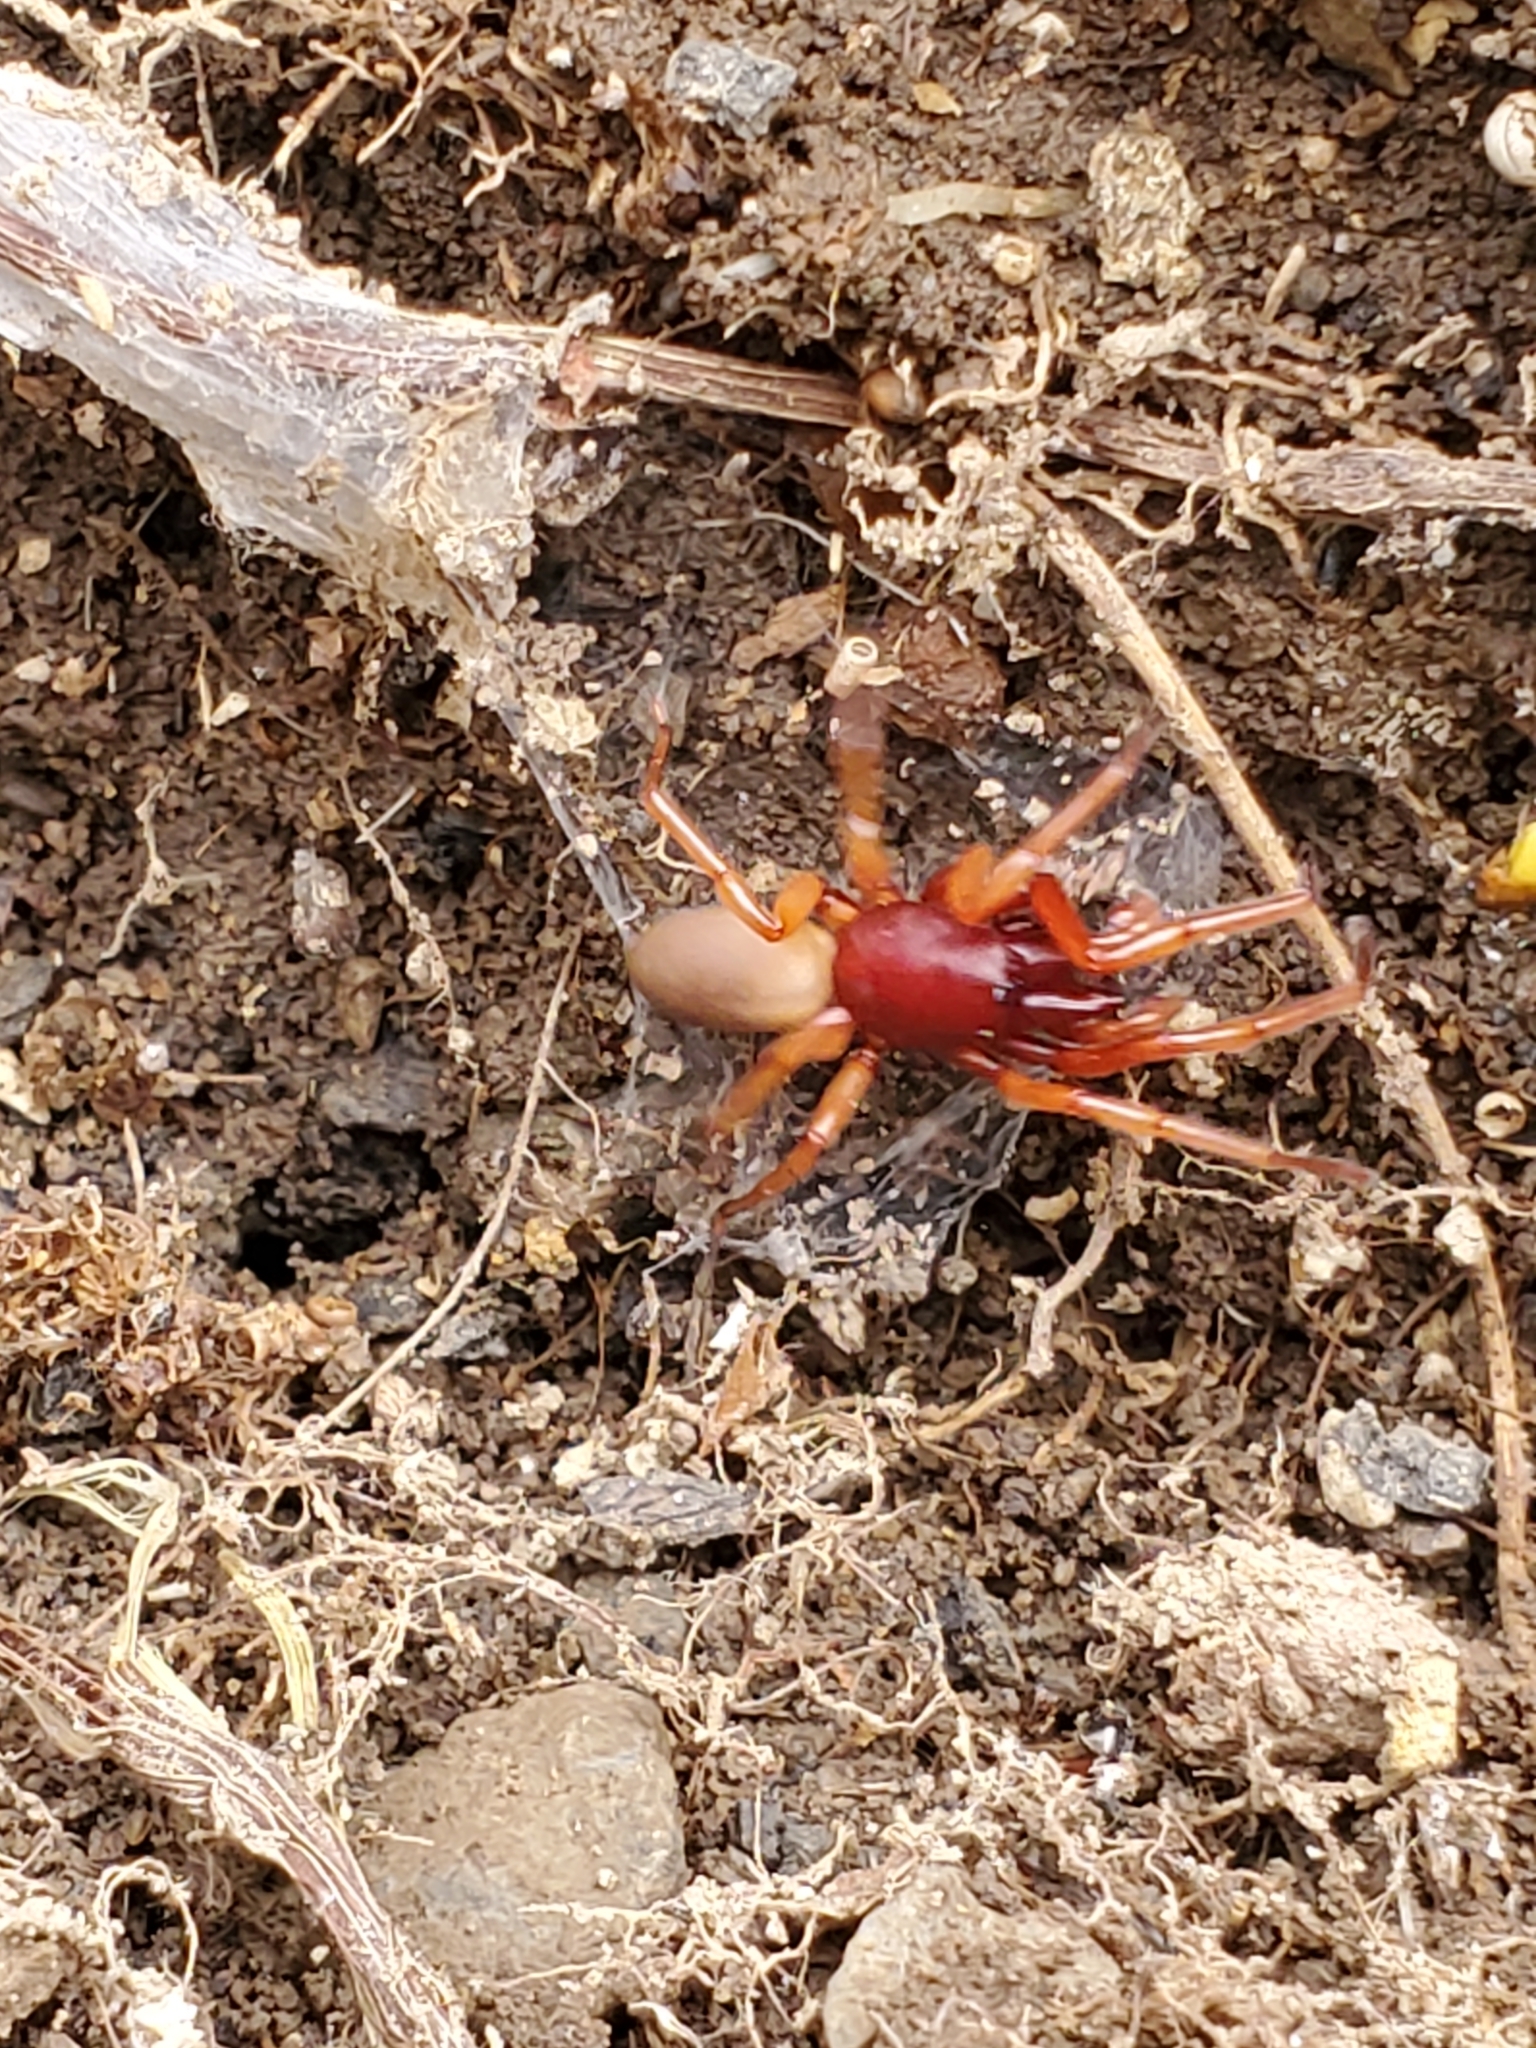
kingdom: Animalia
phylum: Arthropoda
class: Arachnida
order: Araneae
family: Dysderidae
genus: Dysdera
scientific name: Dysdera crocata
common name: Woodlouse spider
